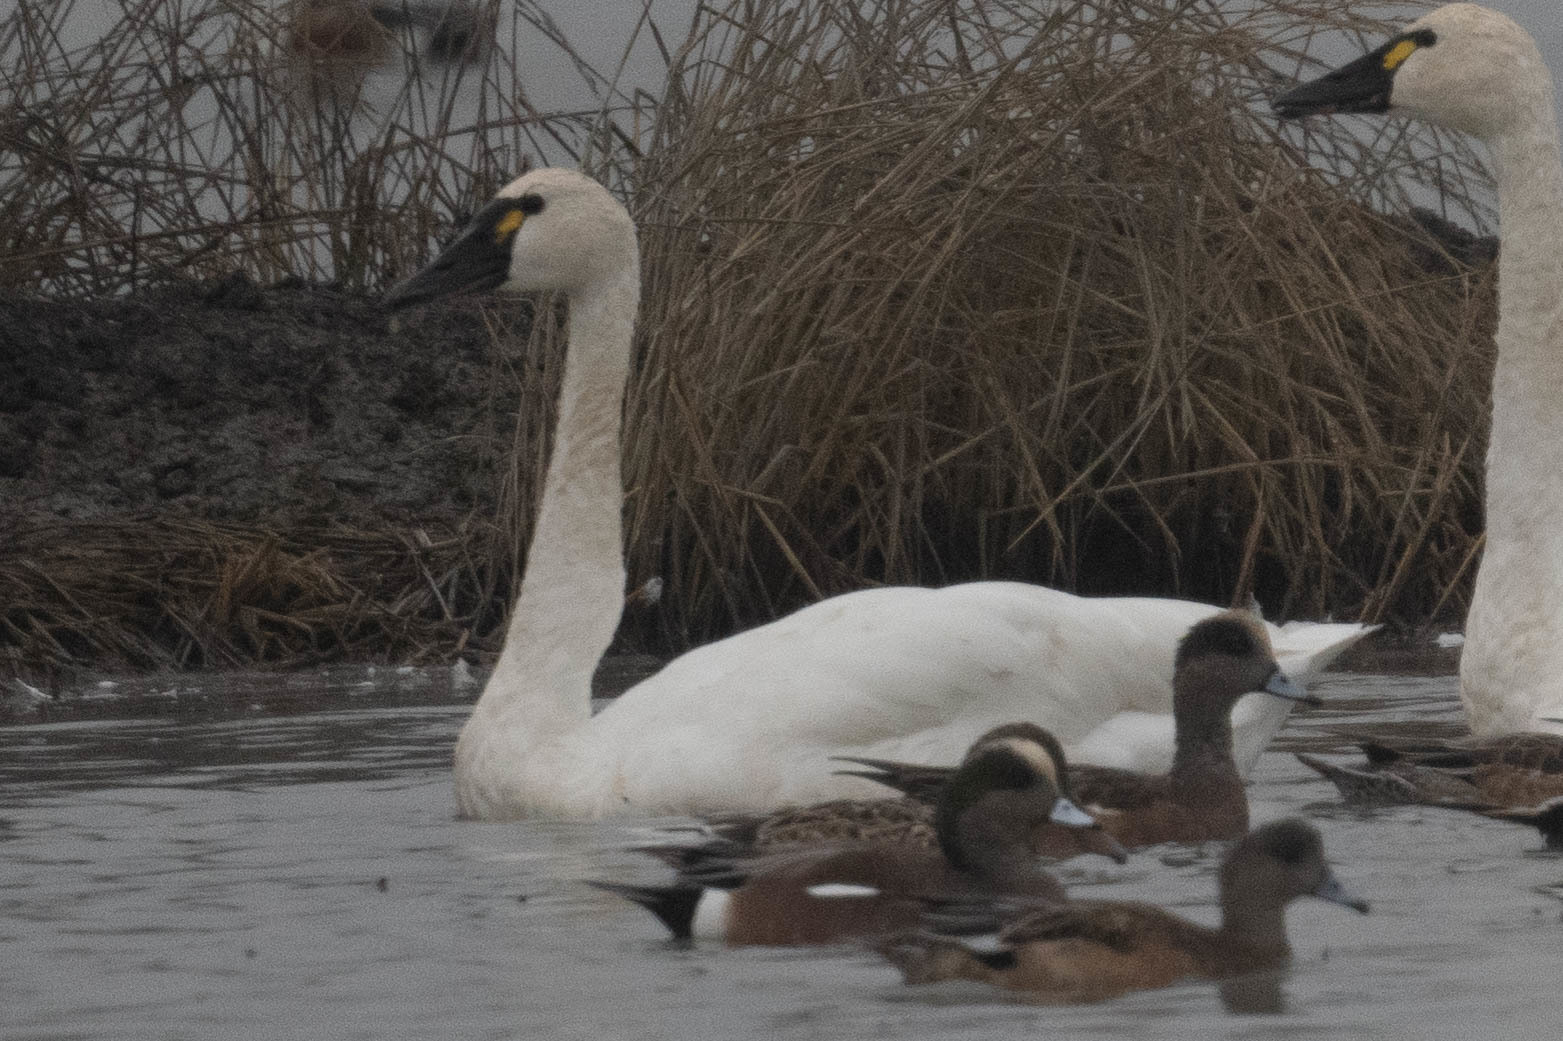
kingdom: Animalia
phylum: Chordata
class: Aves
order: Anseriformes
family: Anatidae
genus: Cygnus
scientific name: Cygnus columbianus
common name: Tundra swan
